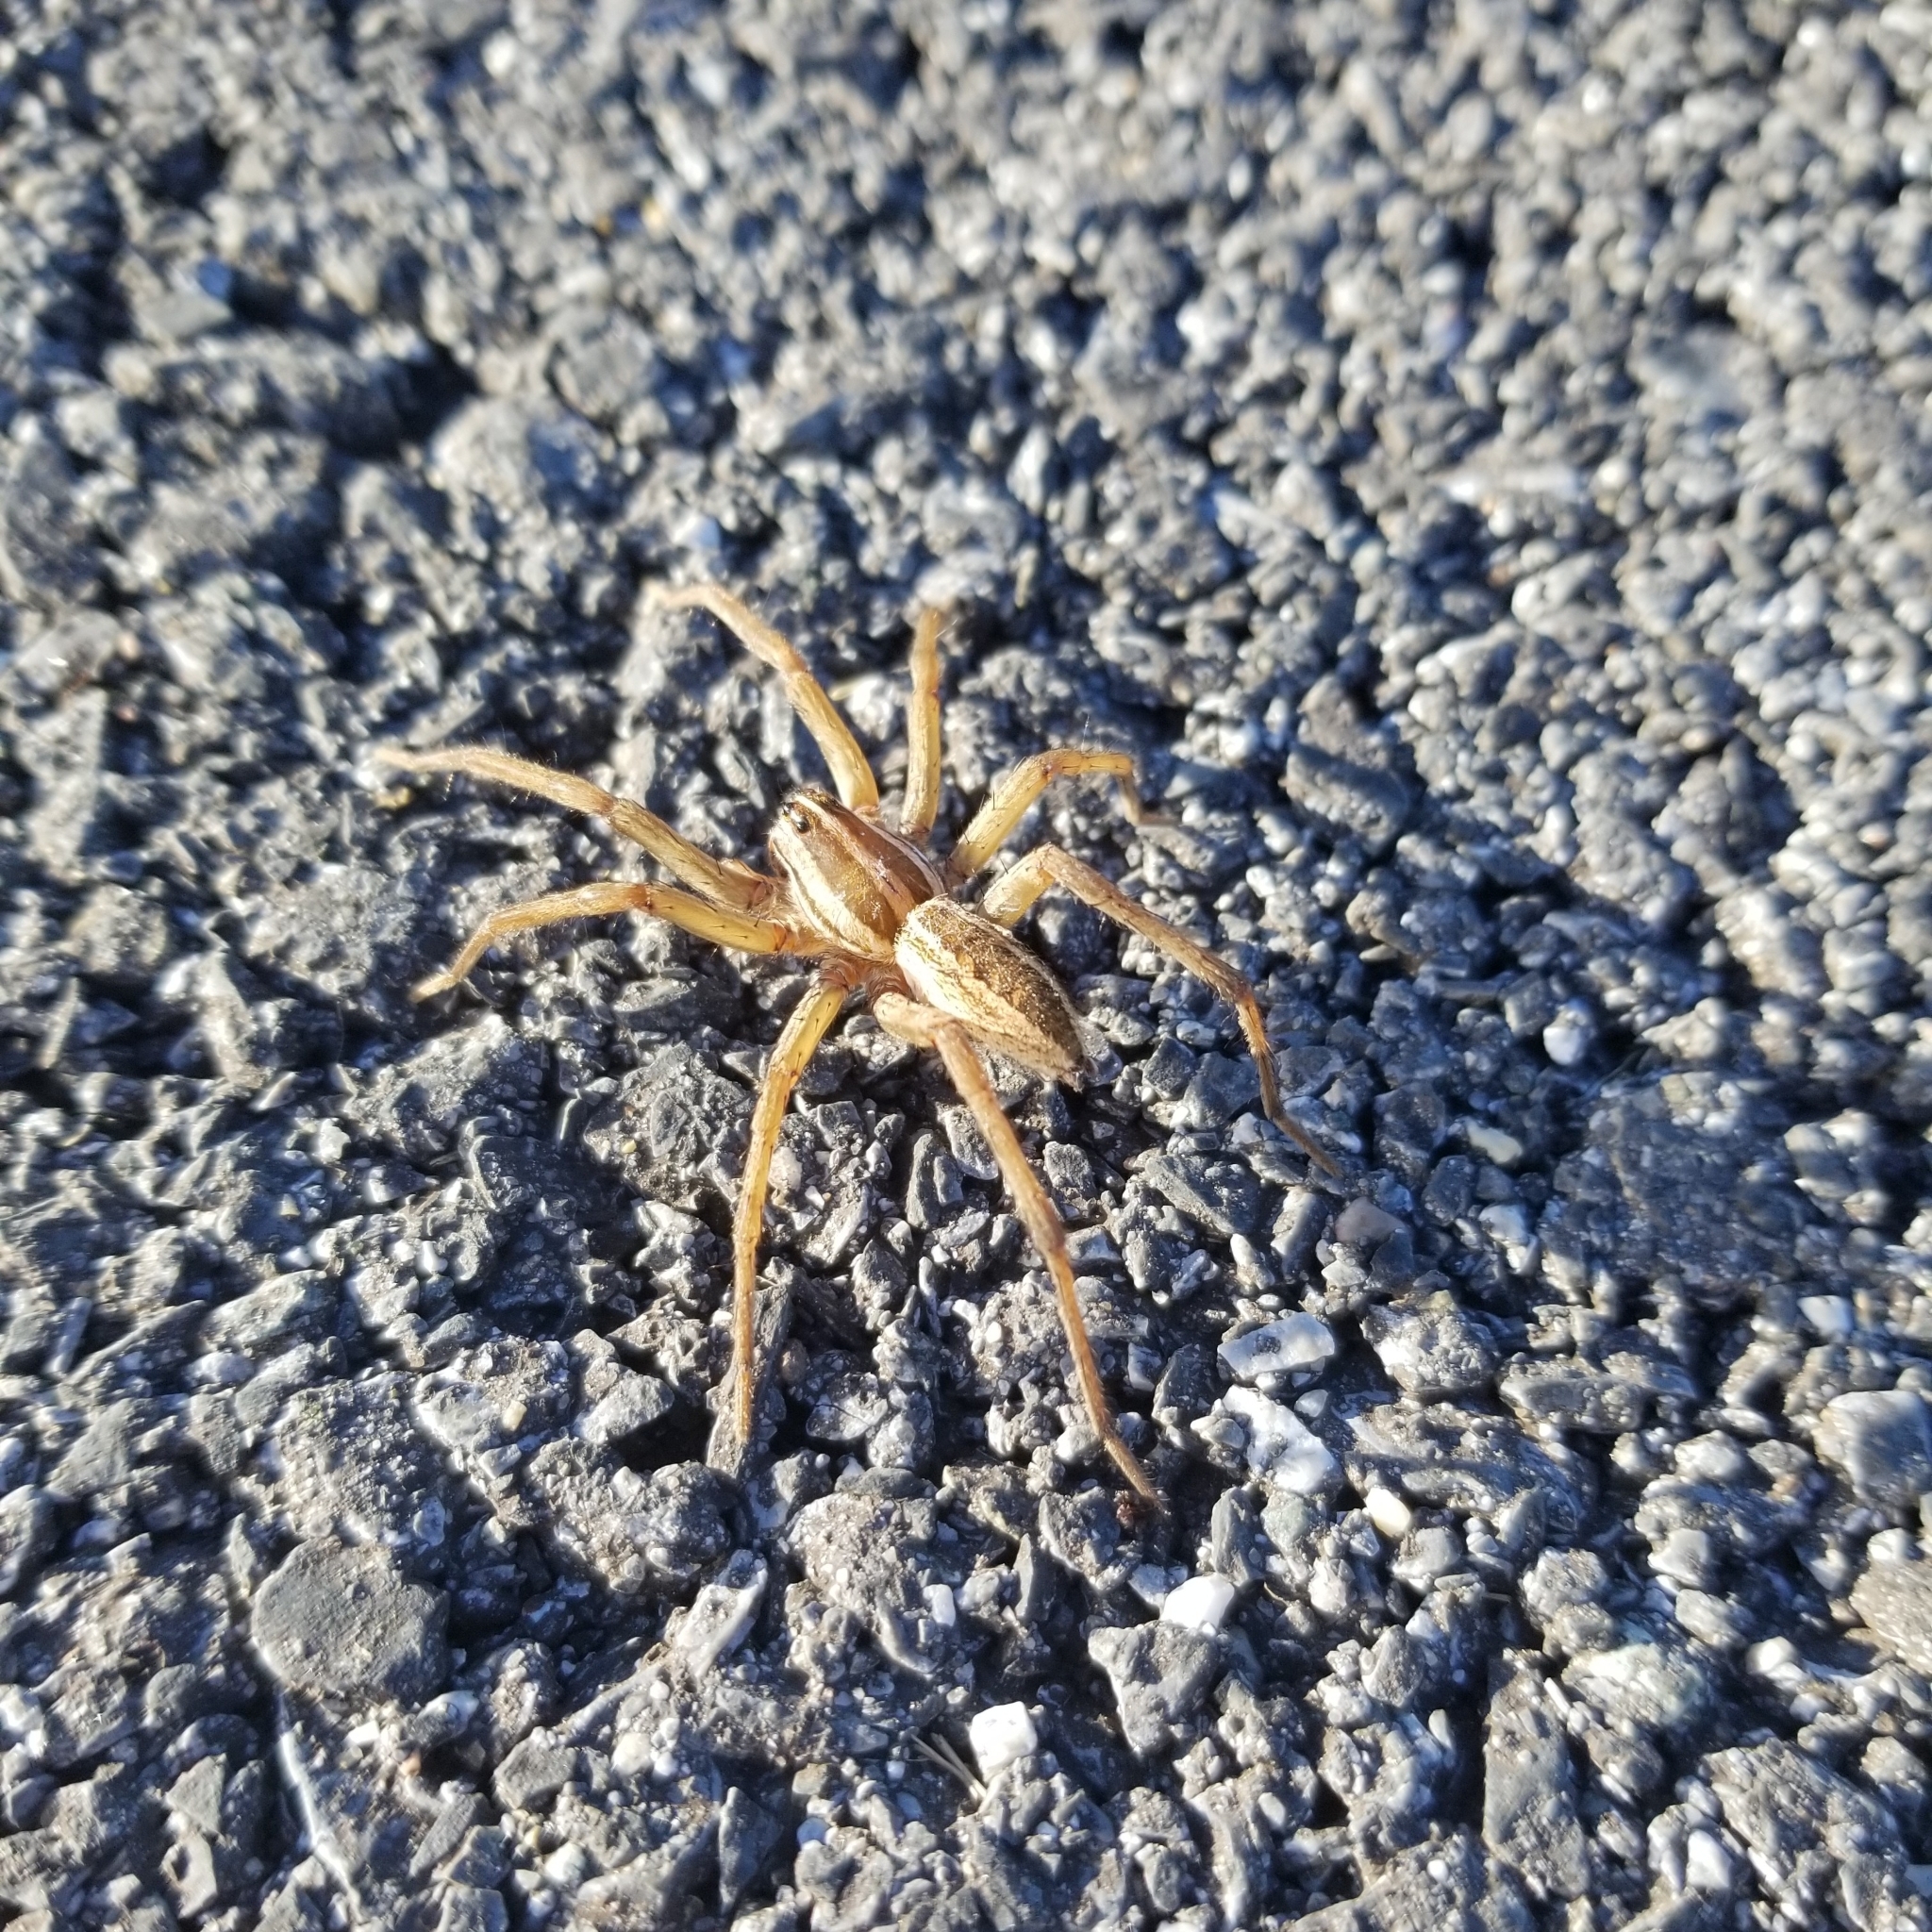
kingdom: Animalia
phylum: Arthropoda
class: Arachnida
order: Araneae
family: Lycosidae
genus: Rabidosa
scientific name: Rabidosa rabida
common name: Rabid wolf spider
